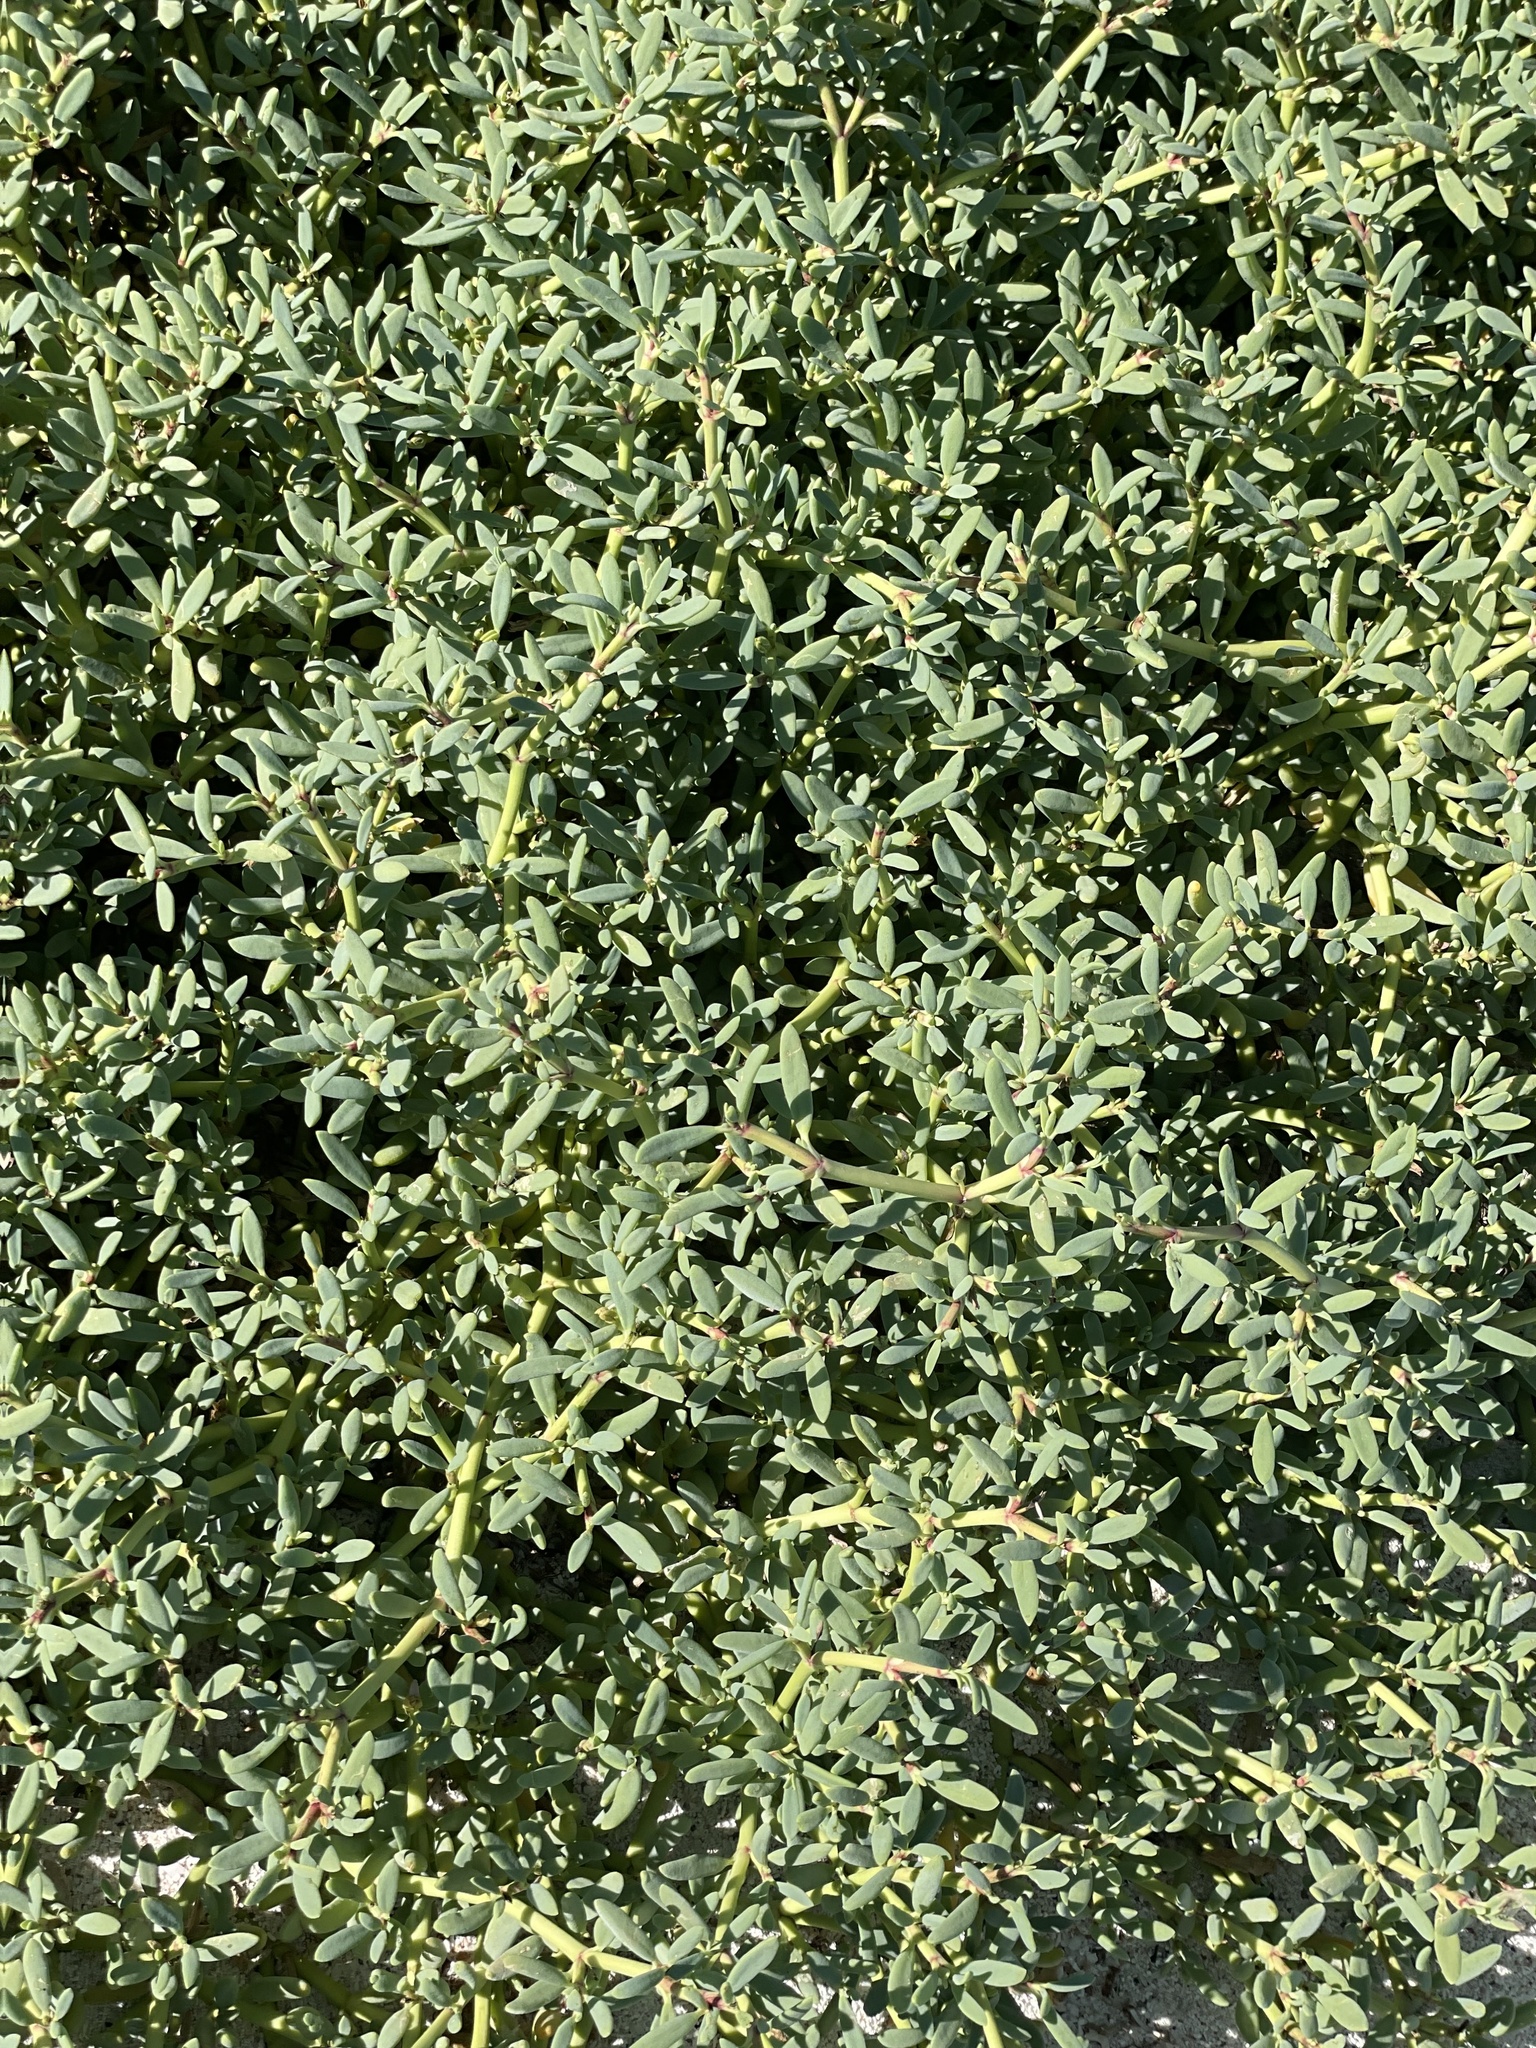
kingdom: Plantae
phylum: Tracheophyta
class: Magnoliopsida
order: Caryophyllales
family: Aizoaceae
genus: Sesuvium
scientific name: Sesuvium portulacastrum
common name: Sea-purslane
